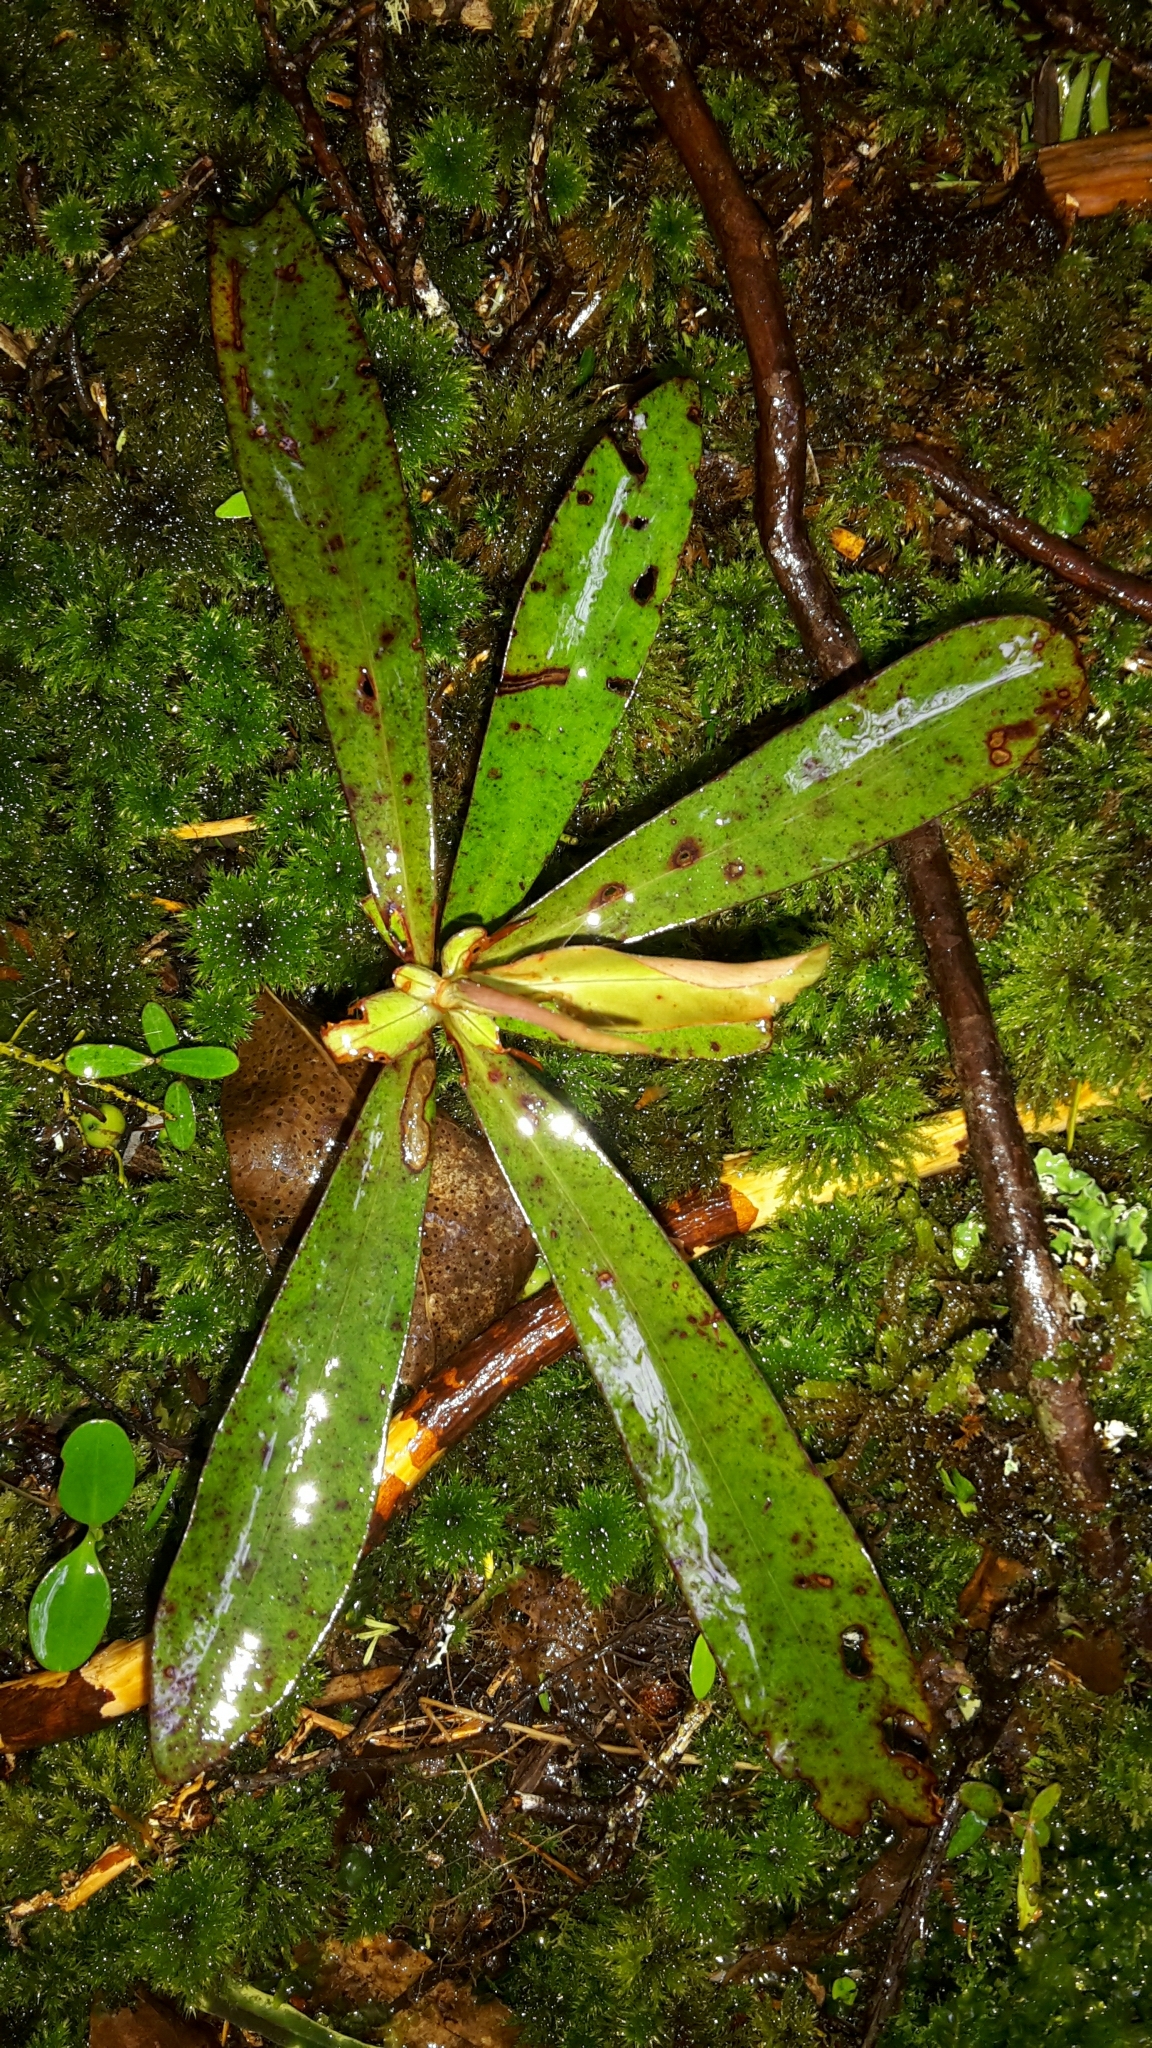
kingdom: Plantae
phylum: Tracheophyta
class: Magnoliopsida
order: Ericales
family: Primulaceae
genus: Myrsine
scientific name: Myrsine salicina
